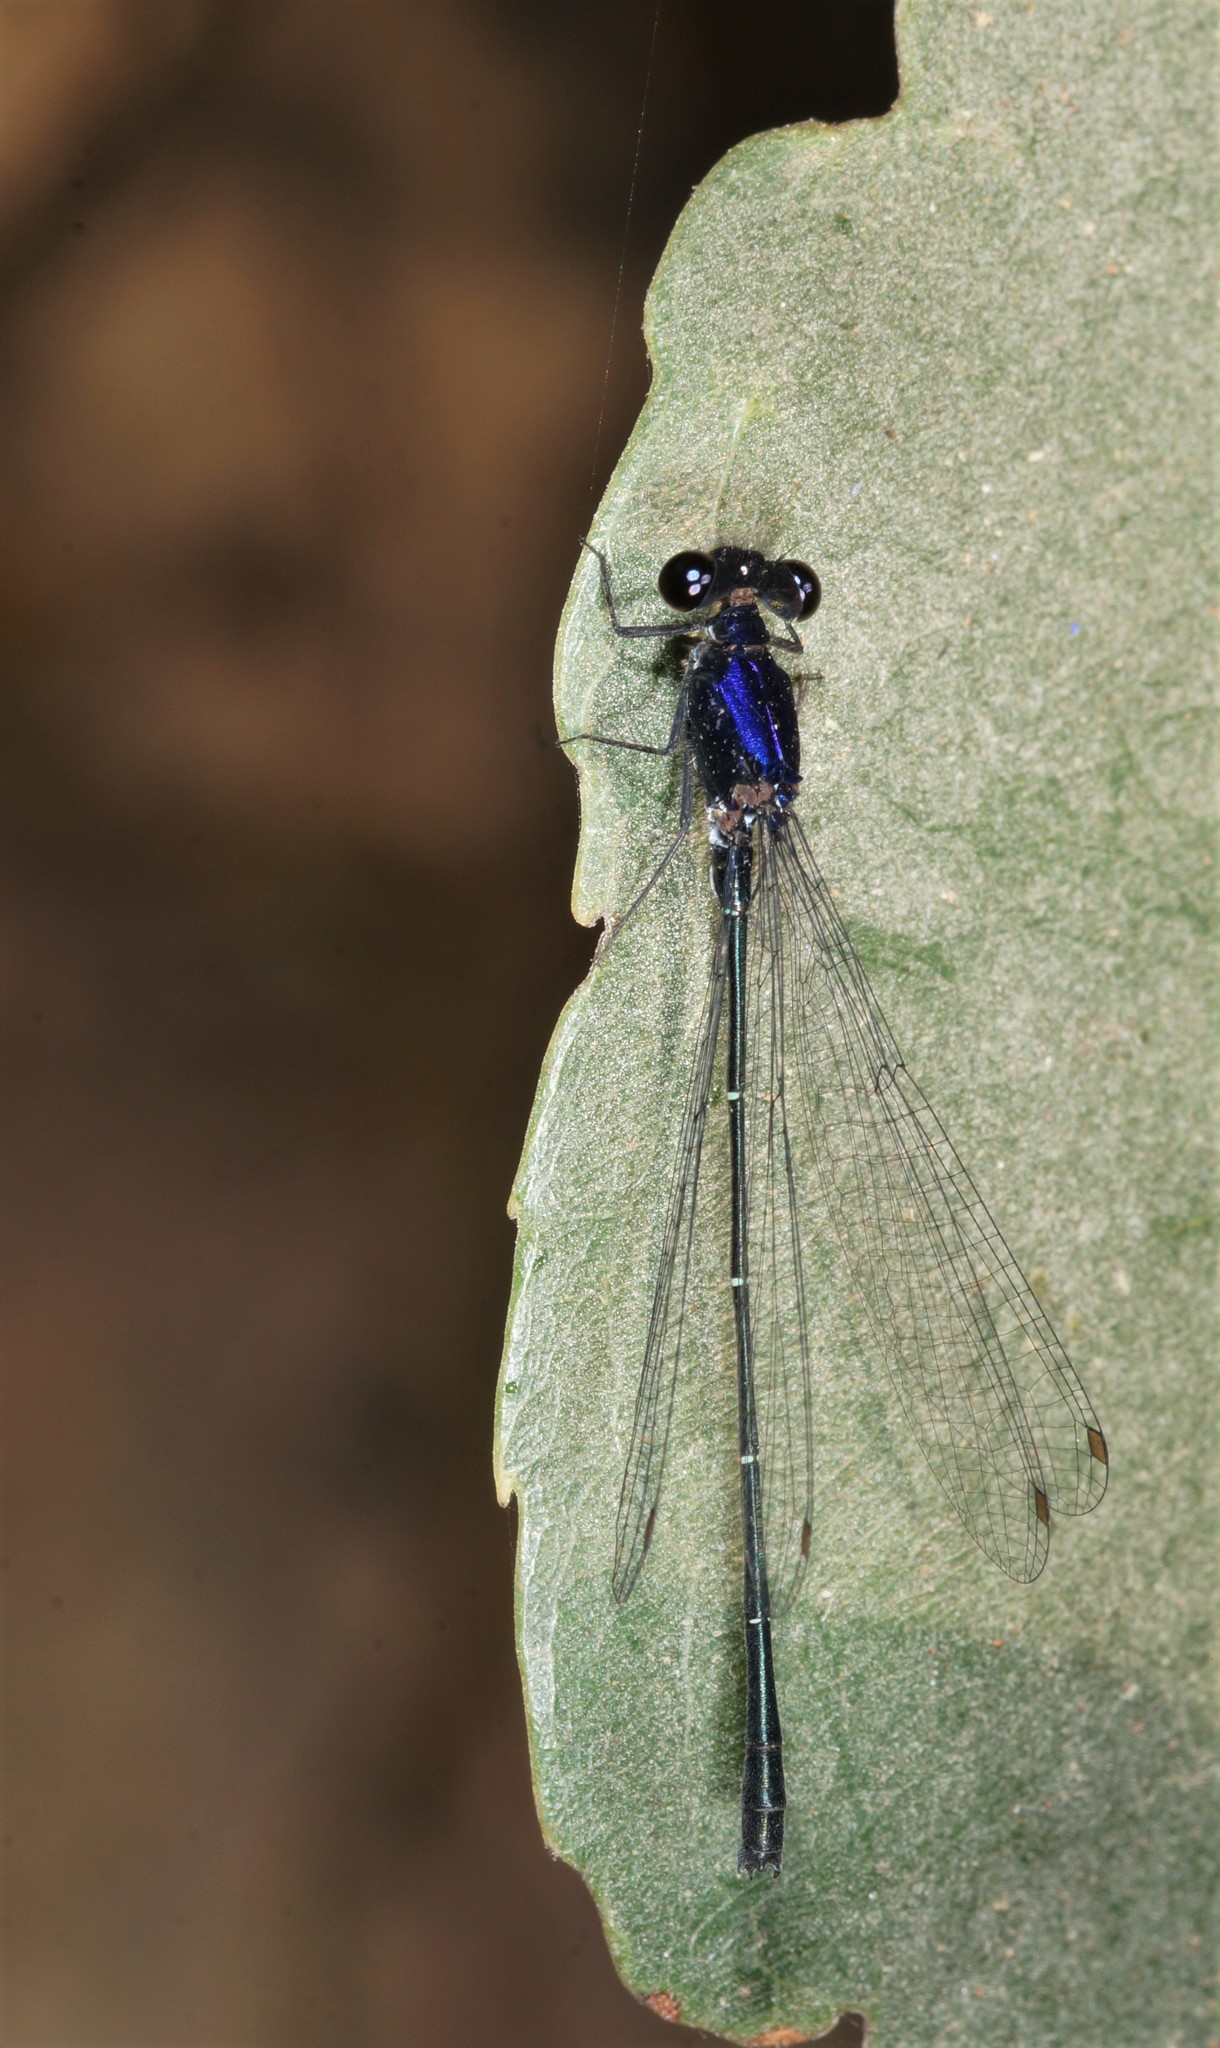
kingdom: Animalia
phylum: Arthropoda
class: Insecta
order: Odonata
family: Platycnemididae
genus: Onychargia
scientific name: Onychargia atrocyana
